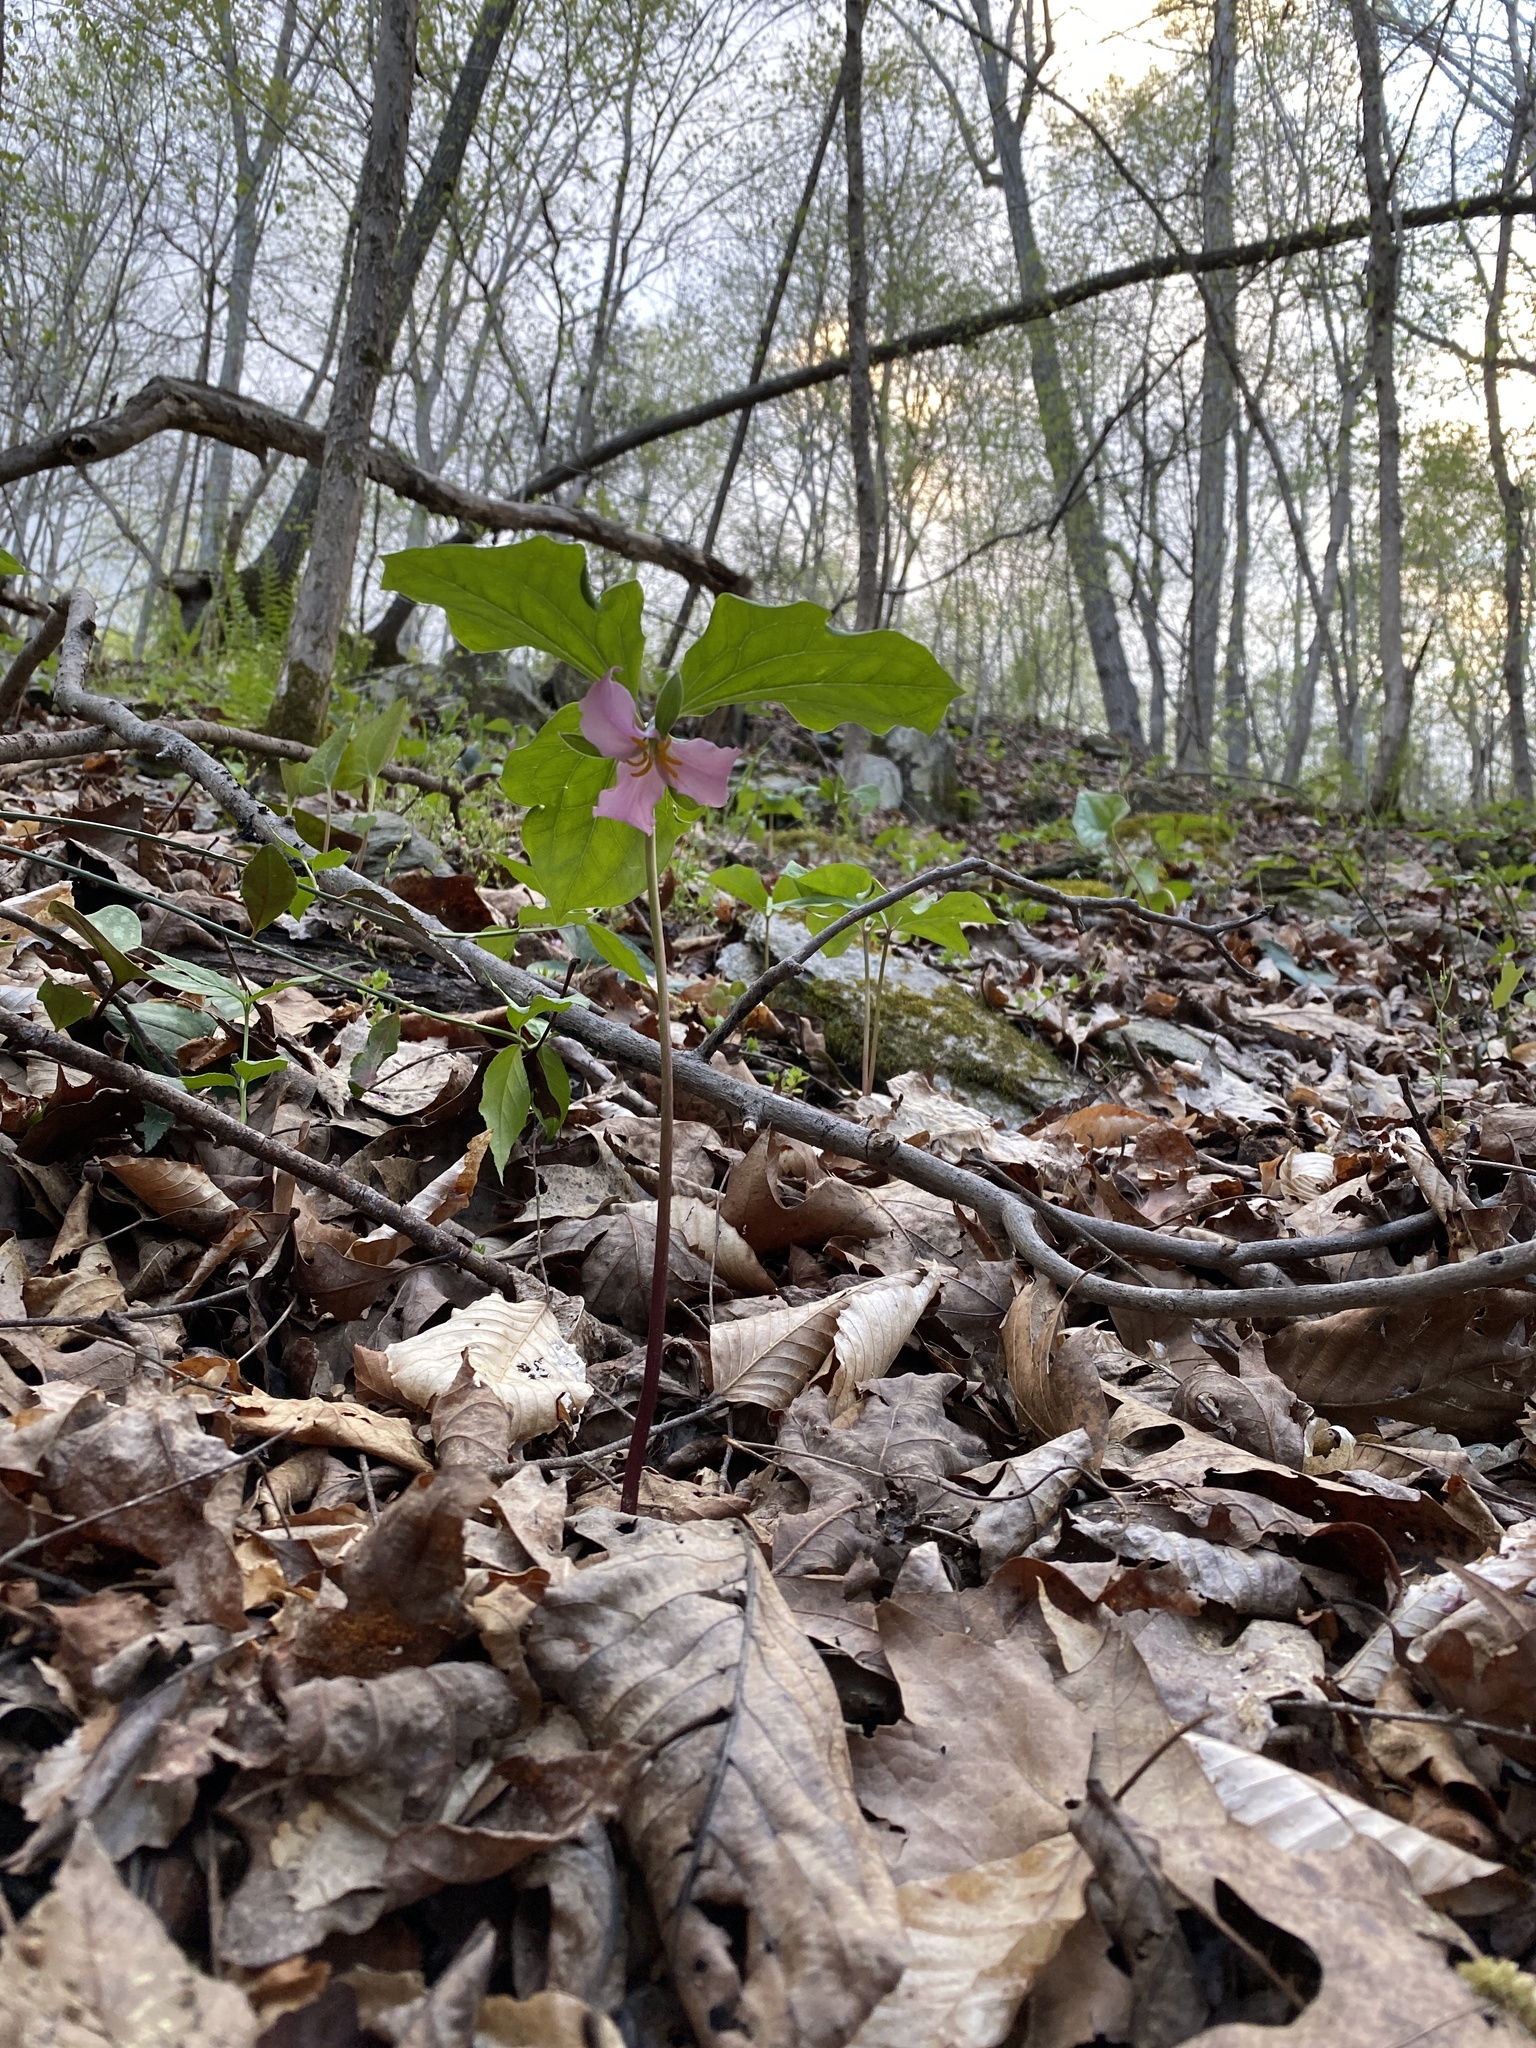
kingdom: Plantae
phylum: Tracheophyta
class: Liliopsida
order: Liliales
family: Melanthiaceae
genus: Trillium
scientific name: Trillium catesbaei
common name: Bashful trillium
